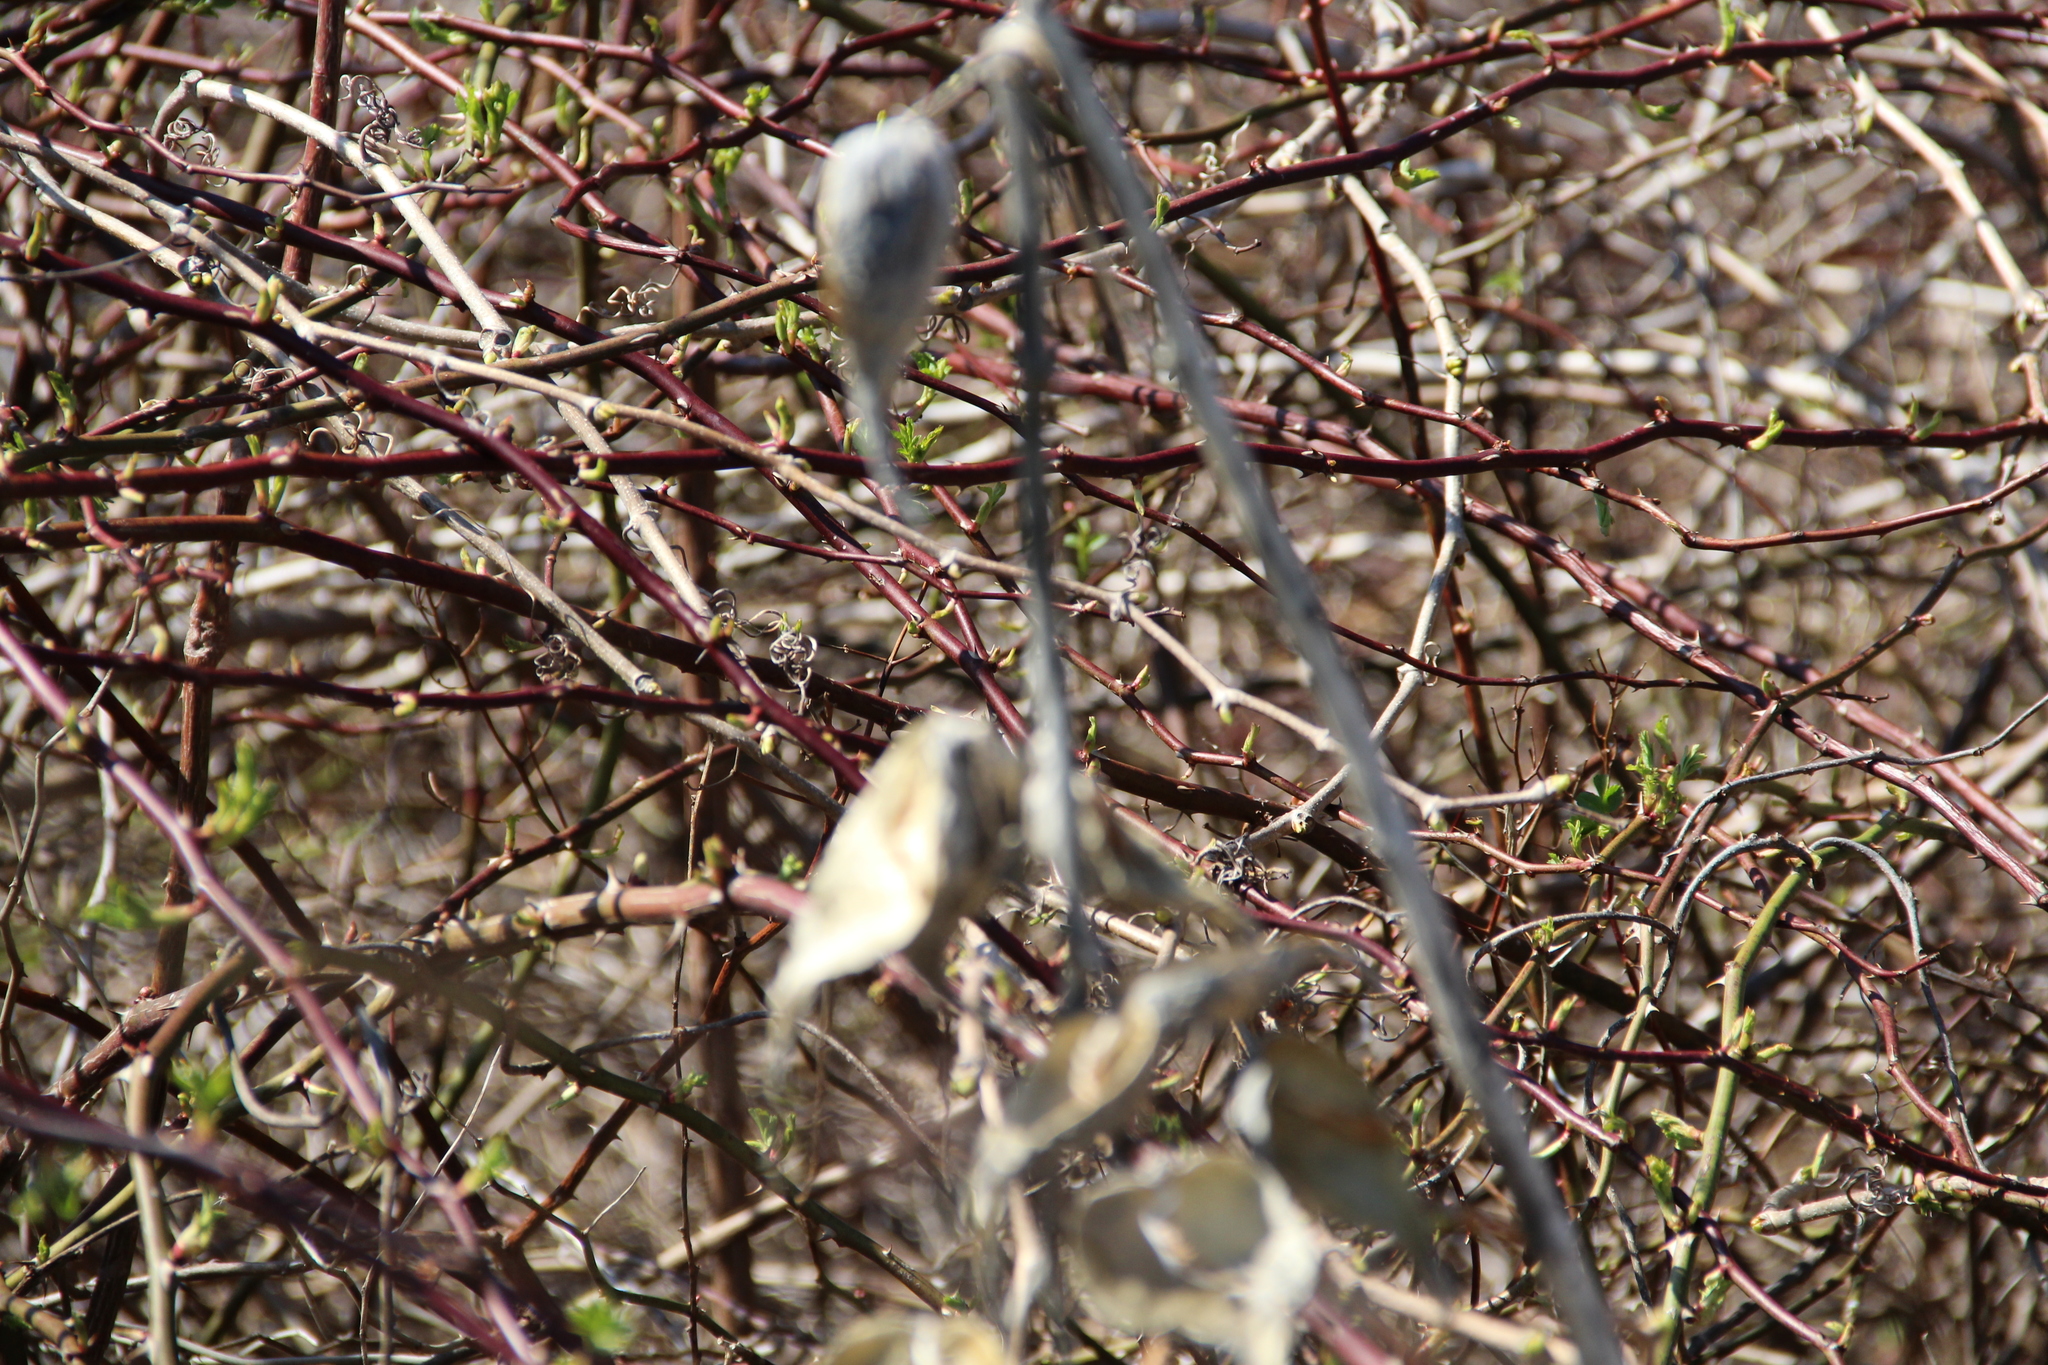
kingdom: Plantae
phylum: Tracheophyta
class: Magnoliopsida
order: Gentianales
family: Apocynaceae
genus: Asclepias
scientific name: Asclepias syriaca
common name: Common milkweed
